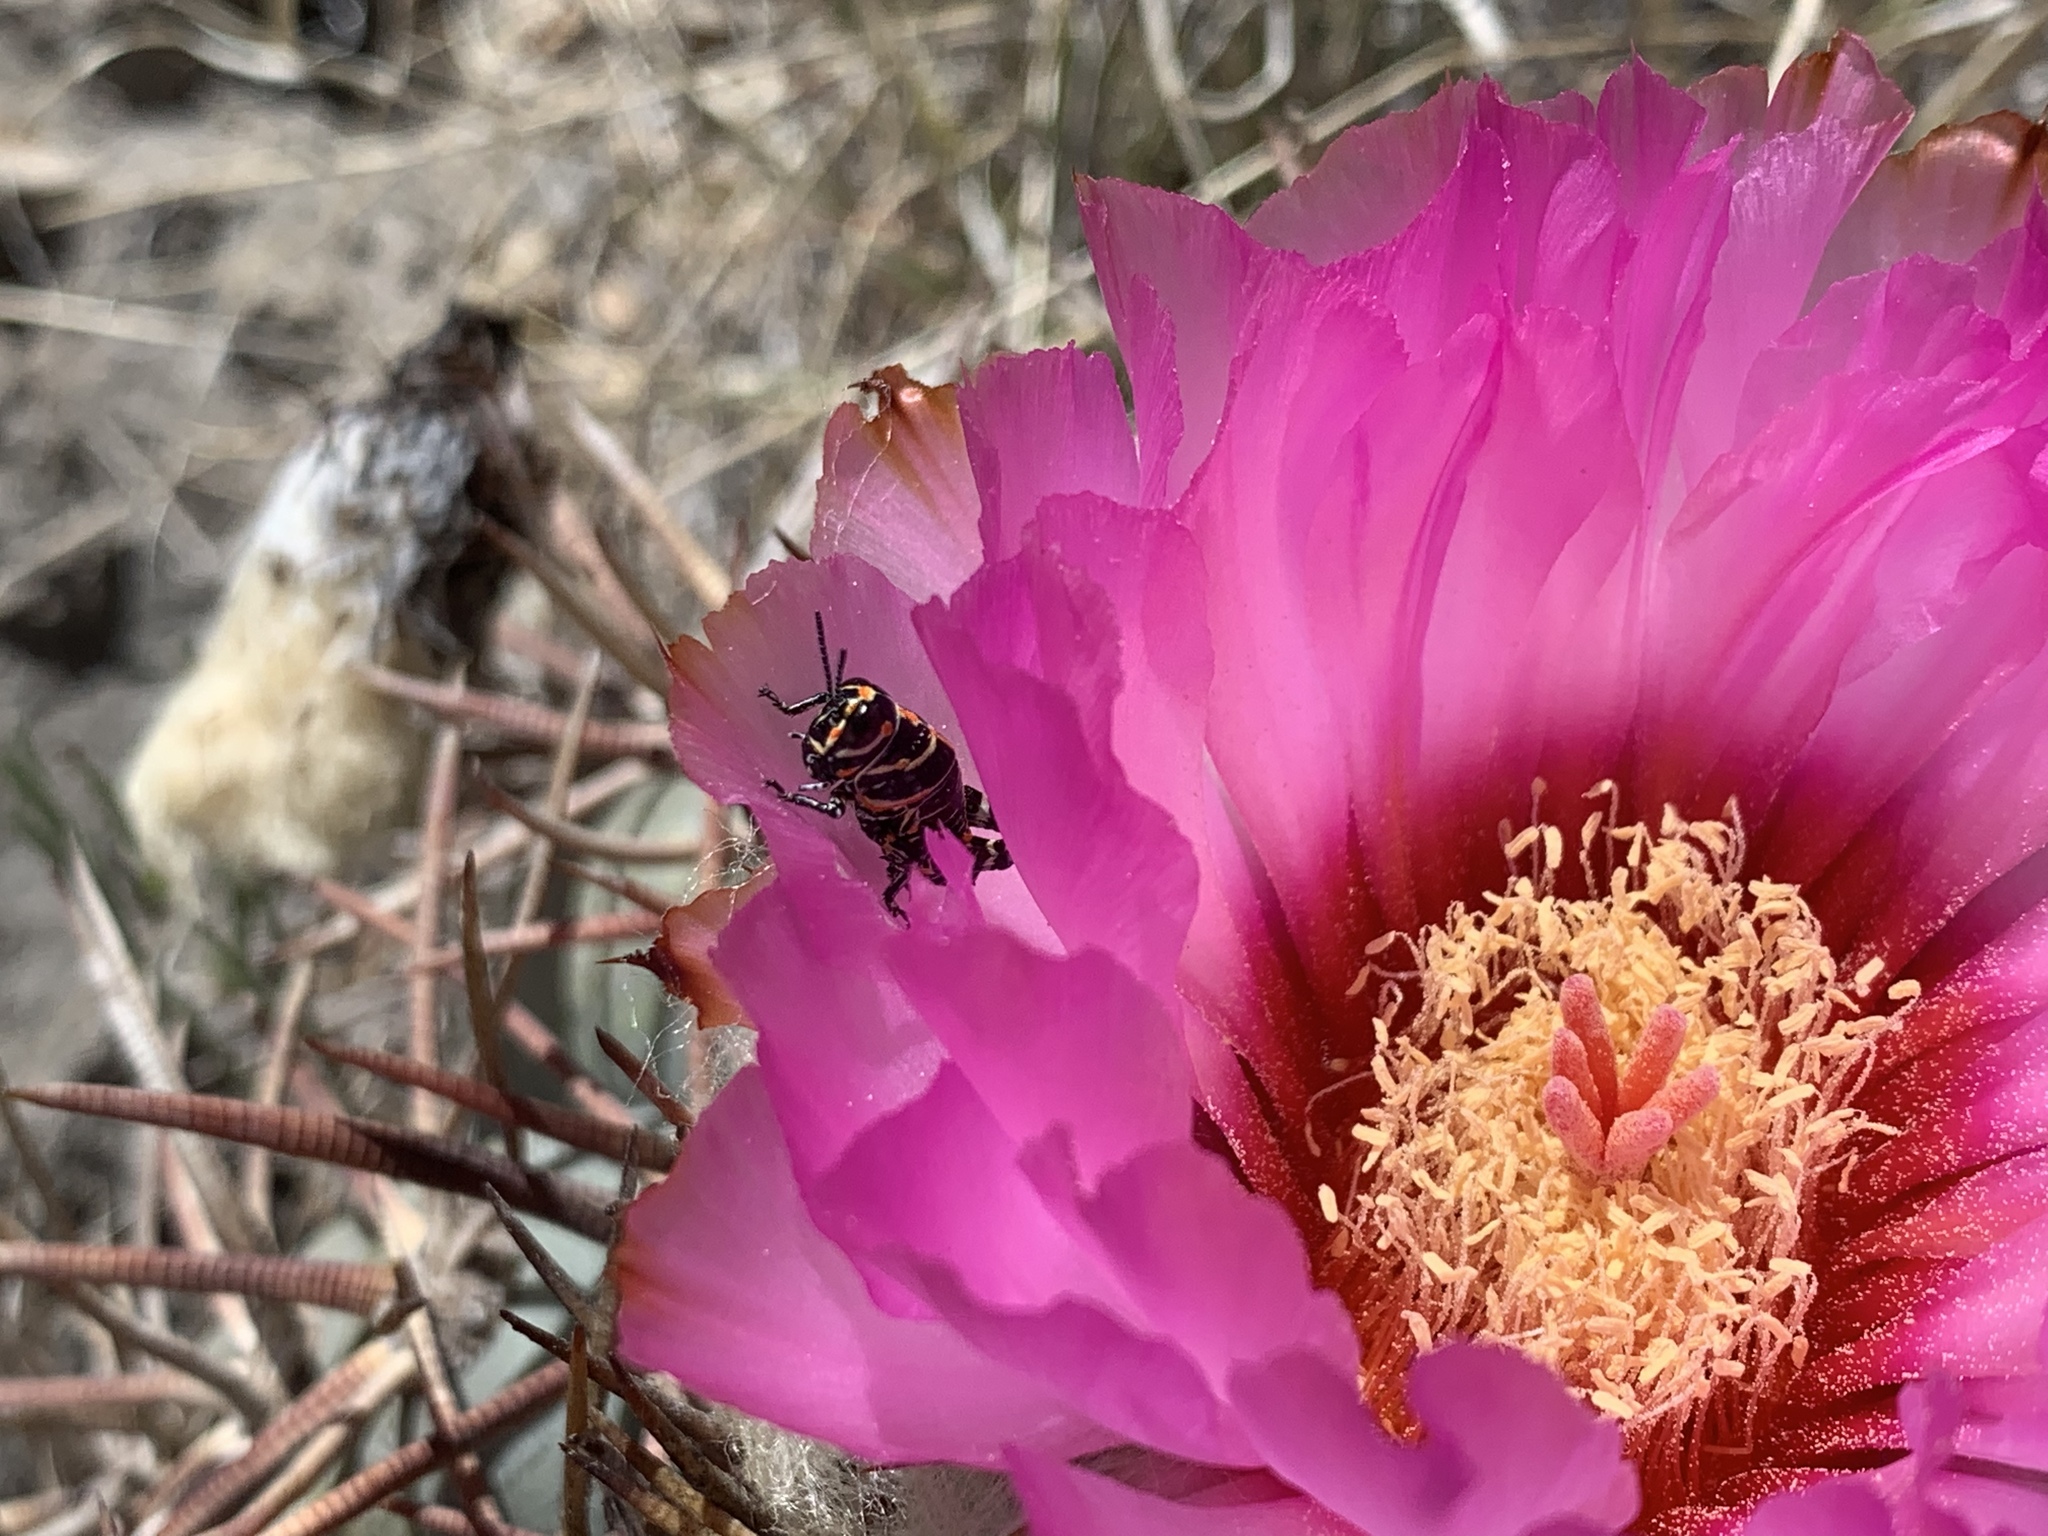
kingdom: Animalia
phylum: Arthropoda
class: Insecta
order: Orthoptera
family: Acrididae
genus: Dactylotum
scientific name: Dactylotum bicolor
